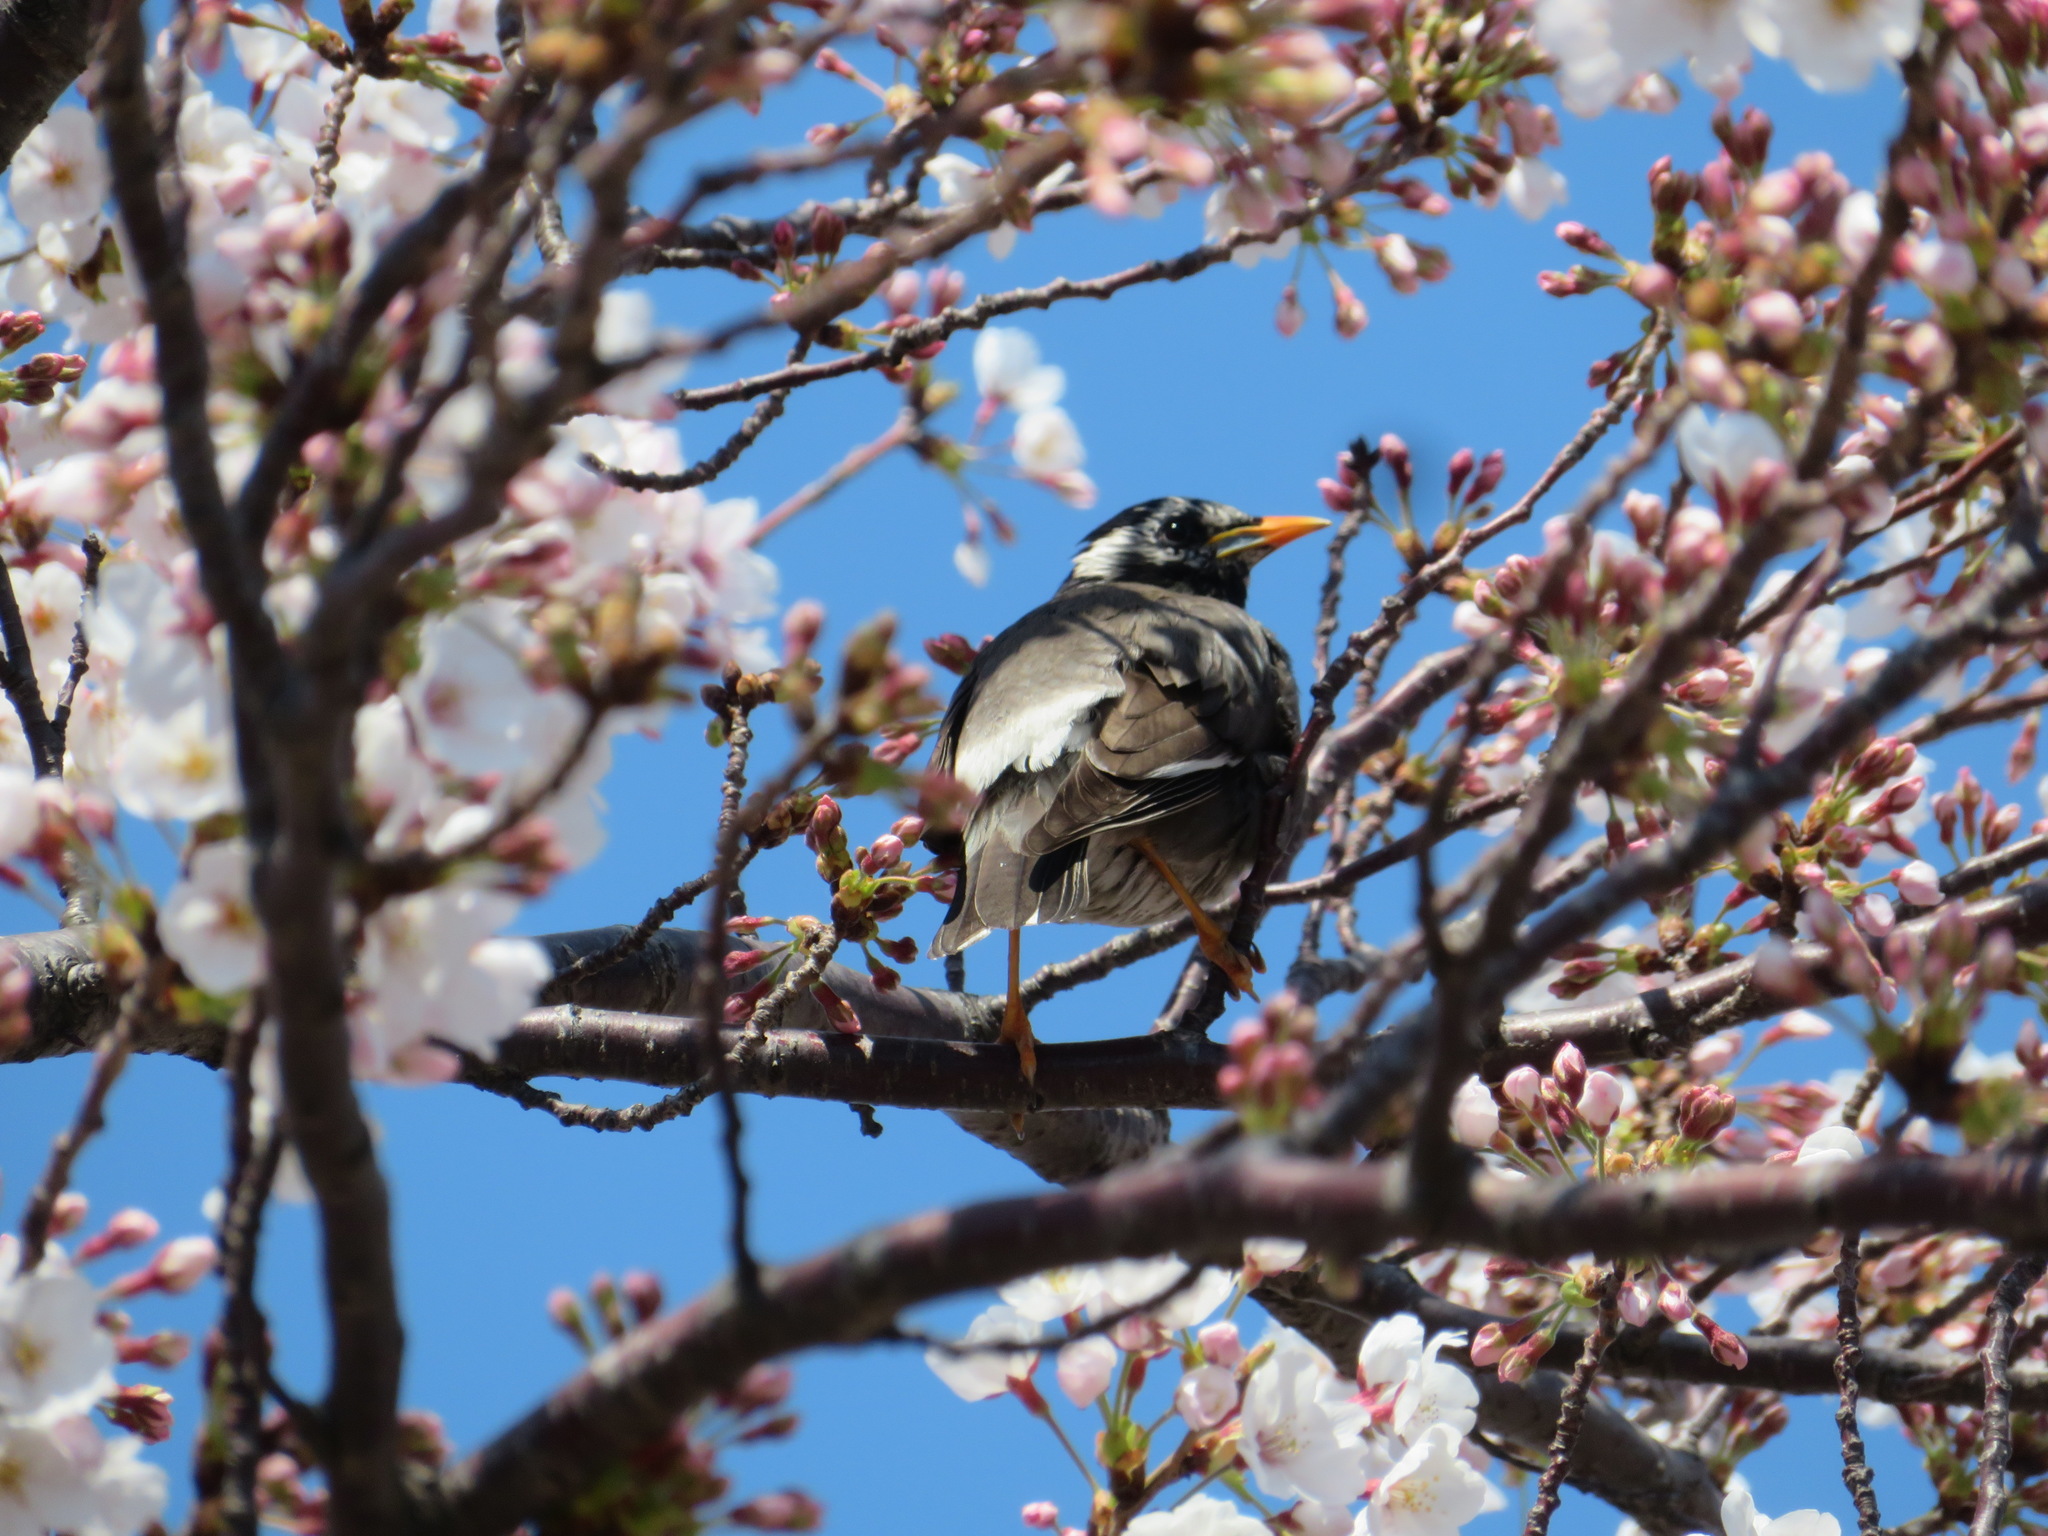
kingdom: Animalia
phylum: Chordata
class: Aves
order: Passeriformes
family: Sturnidae
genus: Spodiopsar
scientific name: Spodiopsar cineraceus
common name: White-cheeked starling
